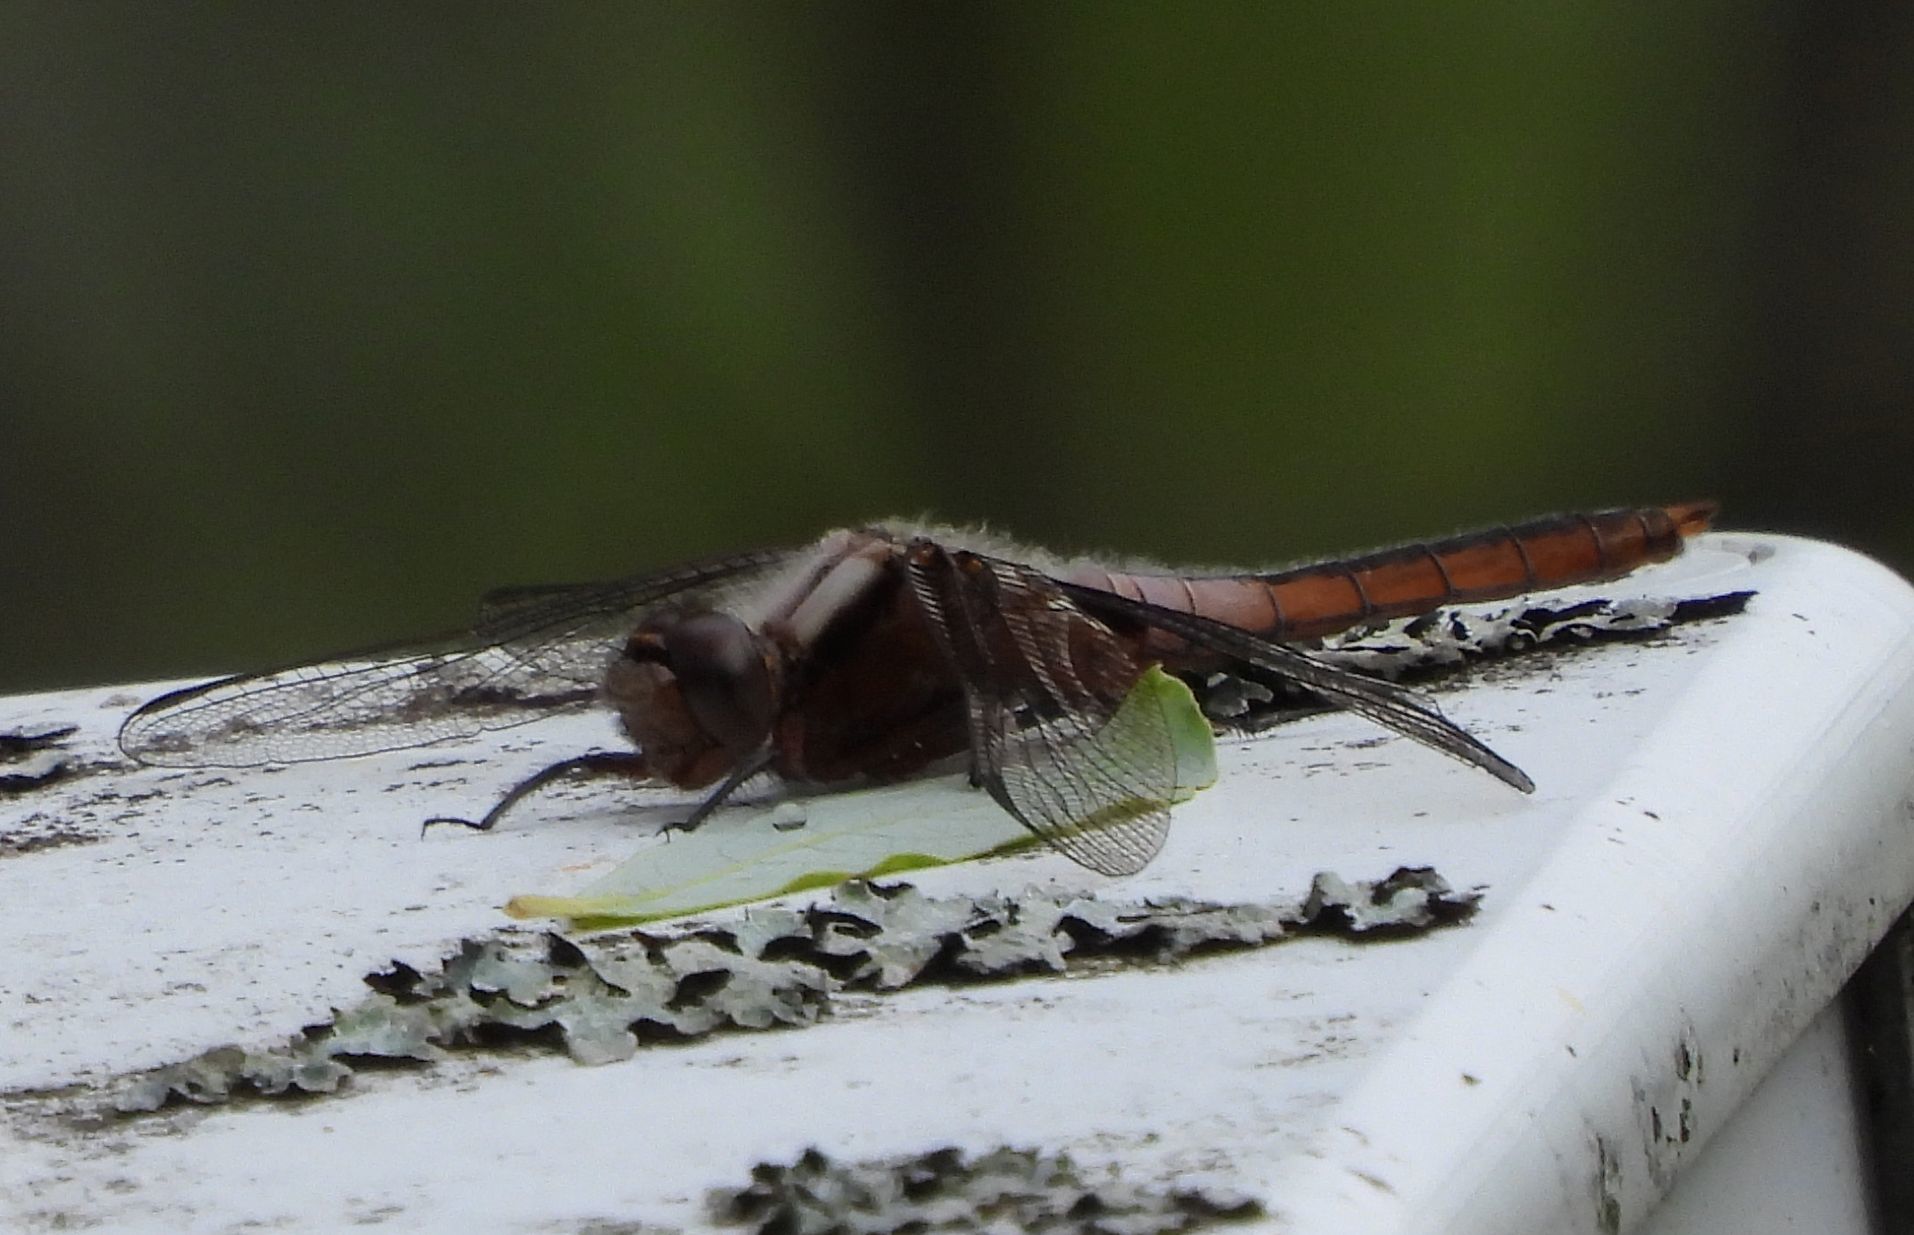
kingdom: Animalia
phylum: Arthropoda
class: Insecta
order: Odonata
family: Libellulidae
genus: Ladona
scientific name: Ladona julia
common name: Chalk-fronted corporal
